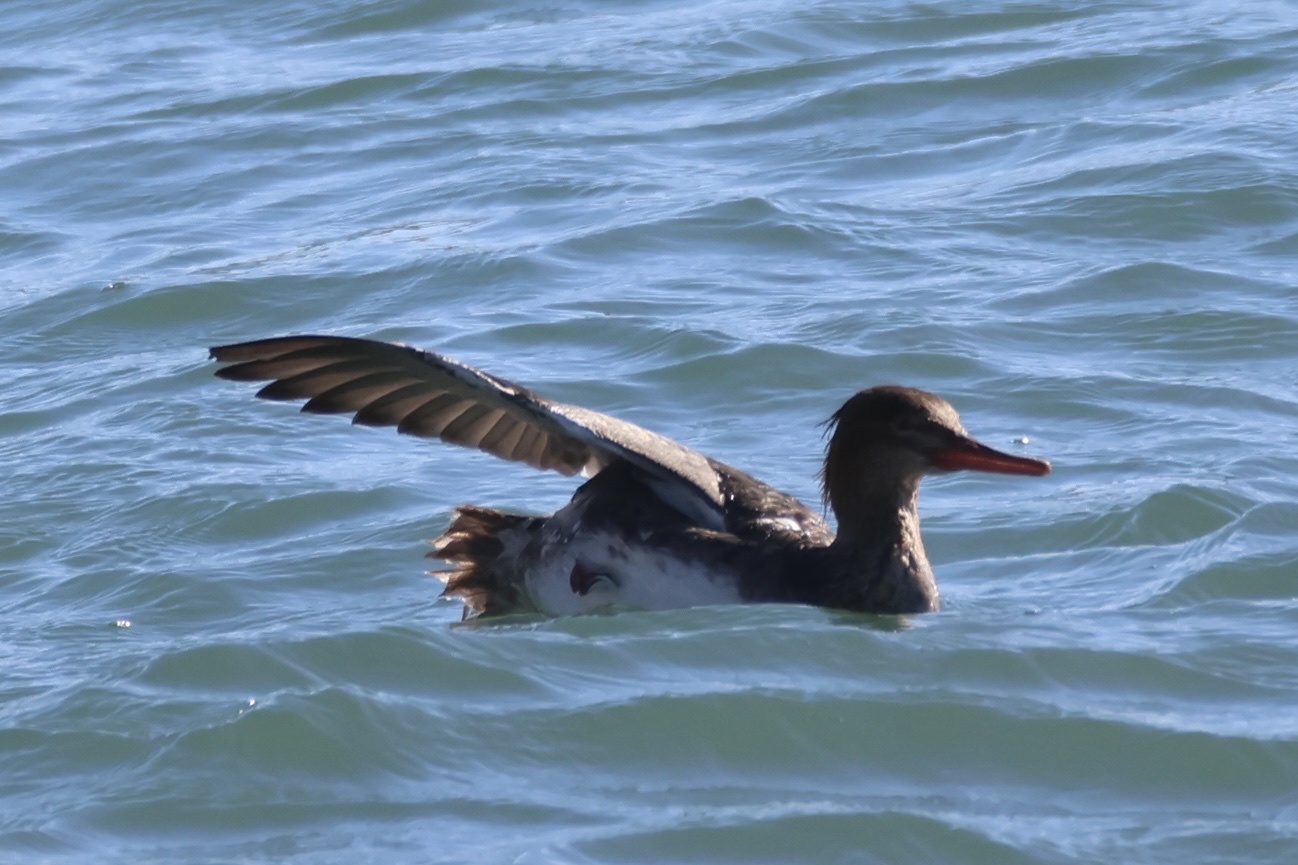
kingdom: Animalia
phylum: Chordata
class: Aves
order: Anseriformes
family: Anatidae
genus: Mergus
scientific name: Mergus serrator
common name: Red-breasted merganser
